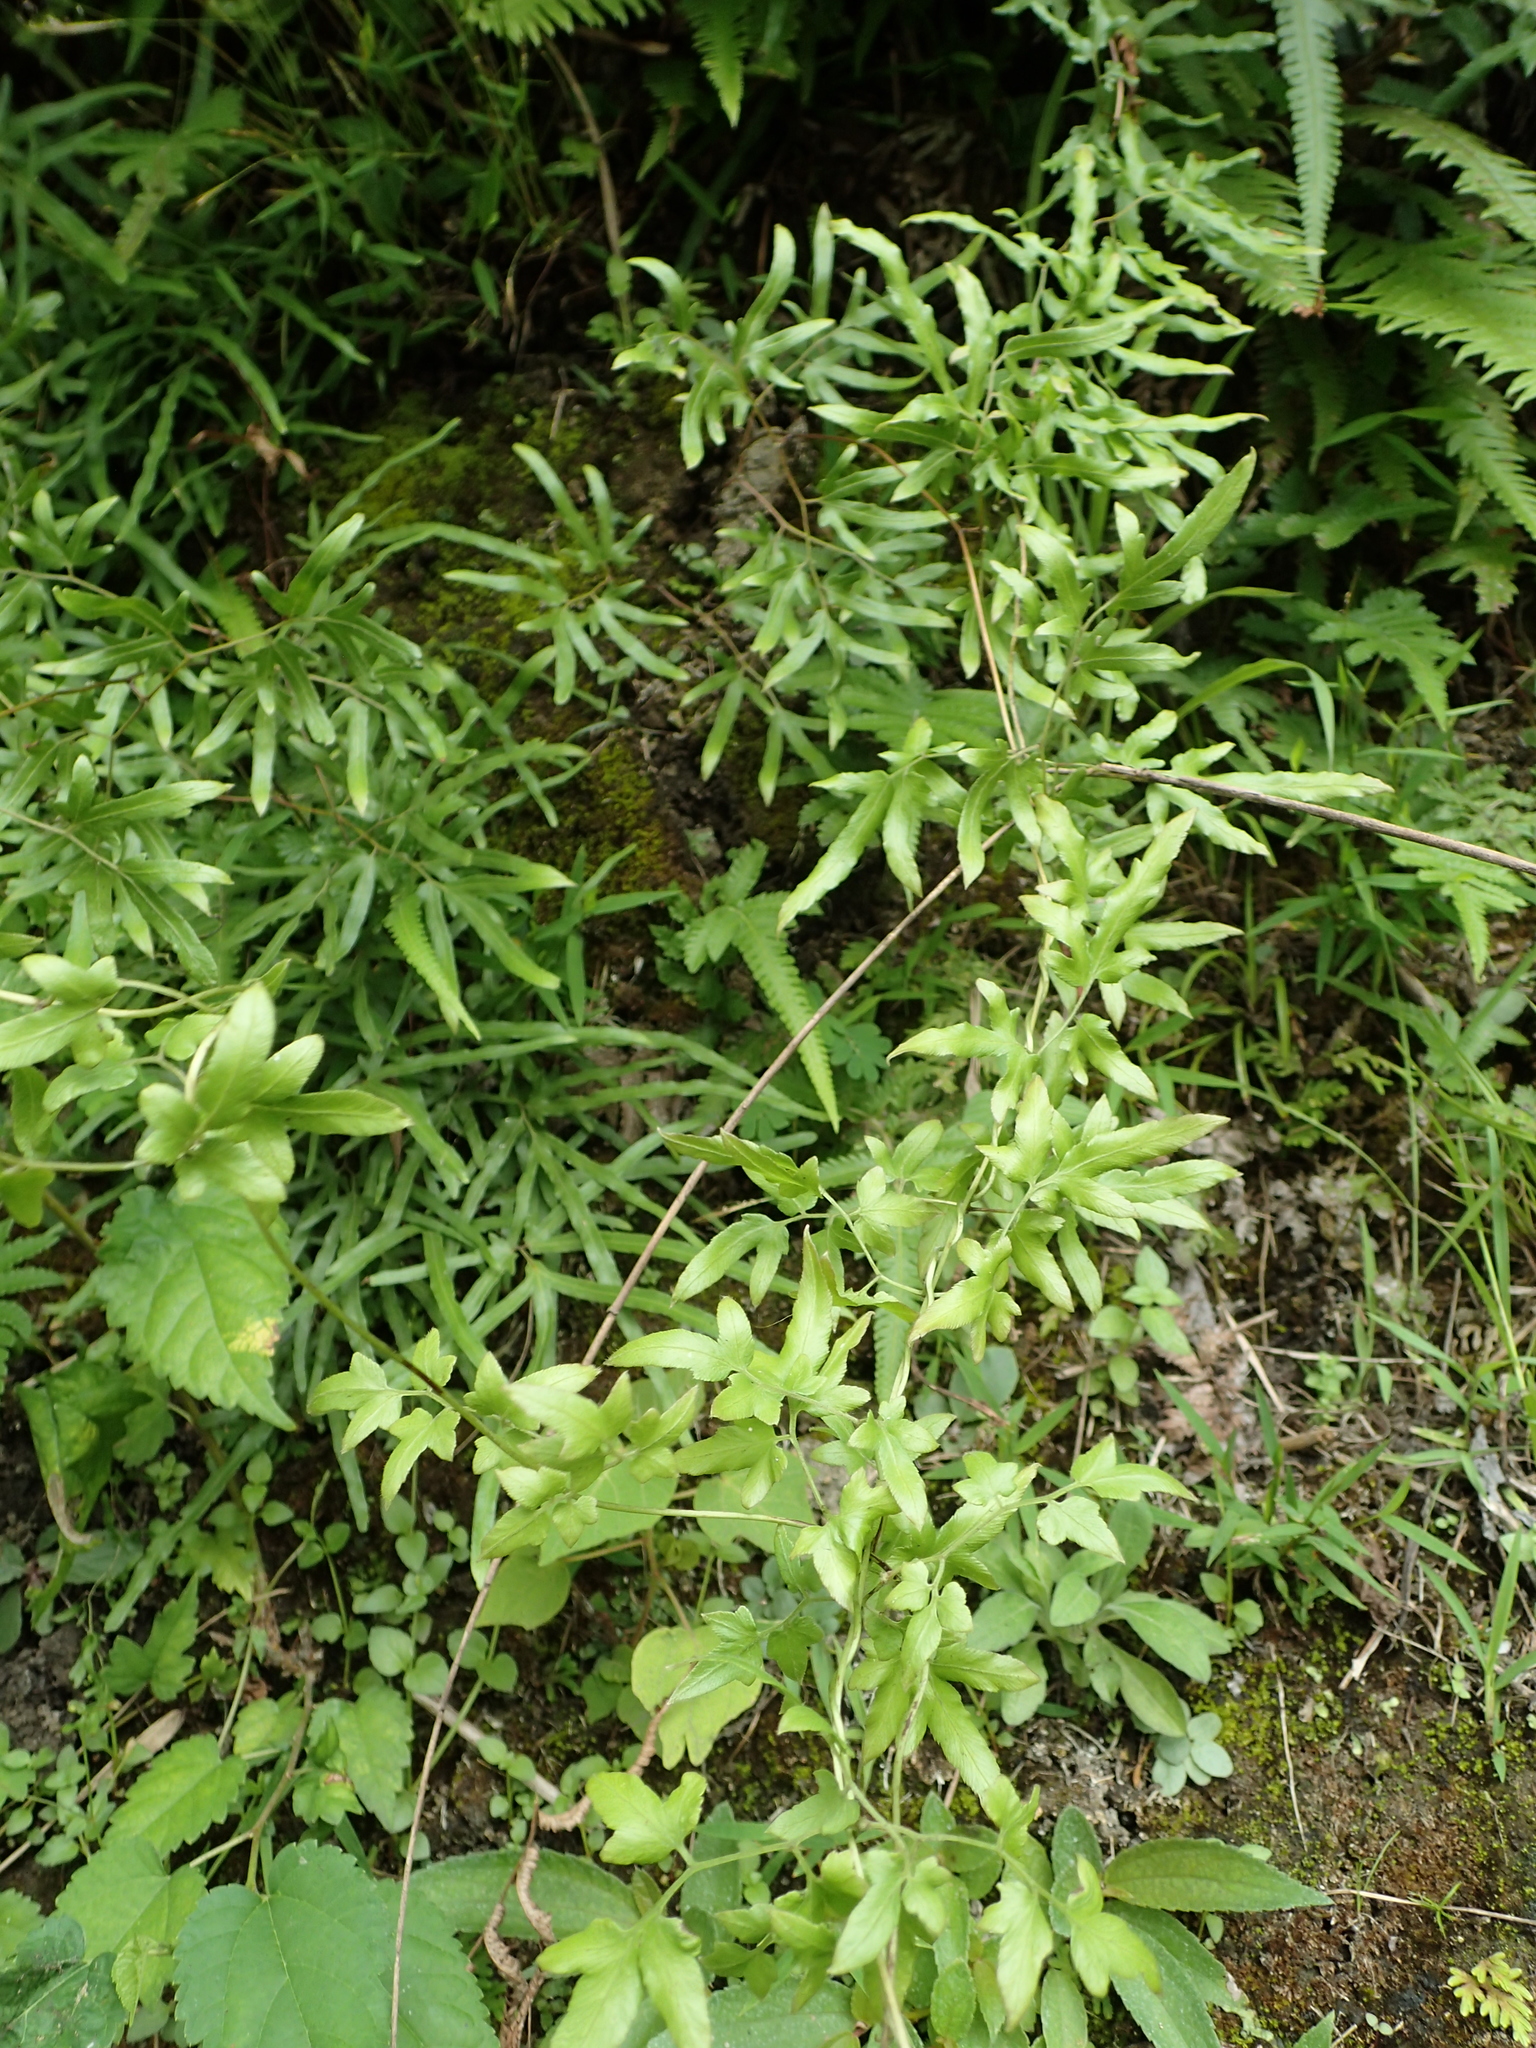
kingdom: Plantae
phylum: Tracheophyta
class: Polypodiopsida
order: Schizaeales
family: Lygodiaceae
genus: Lygodium
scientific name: Lygodium japonicum
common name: Japanese climbing fern
